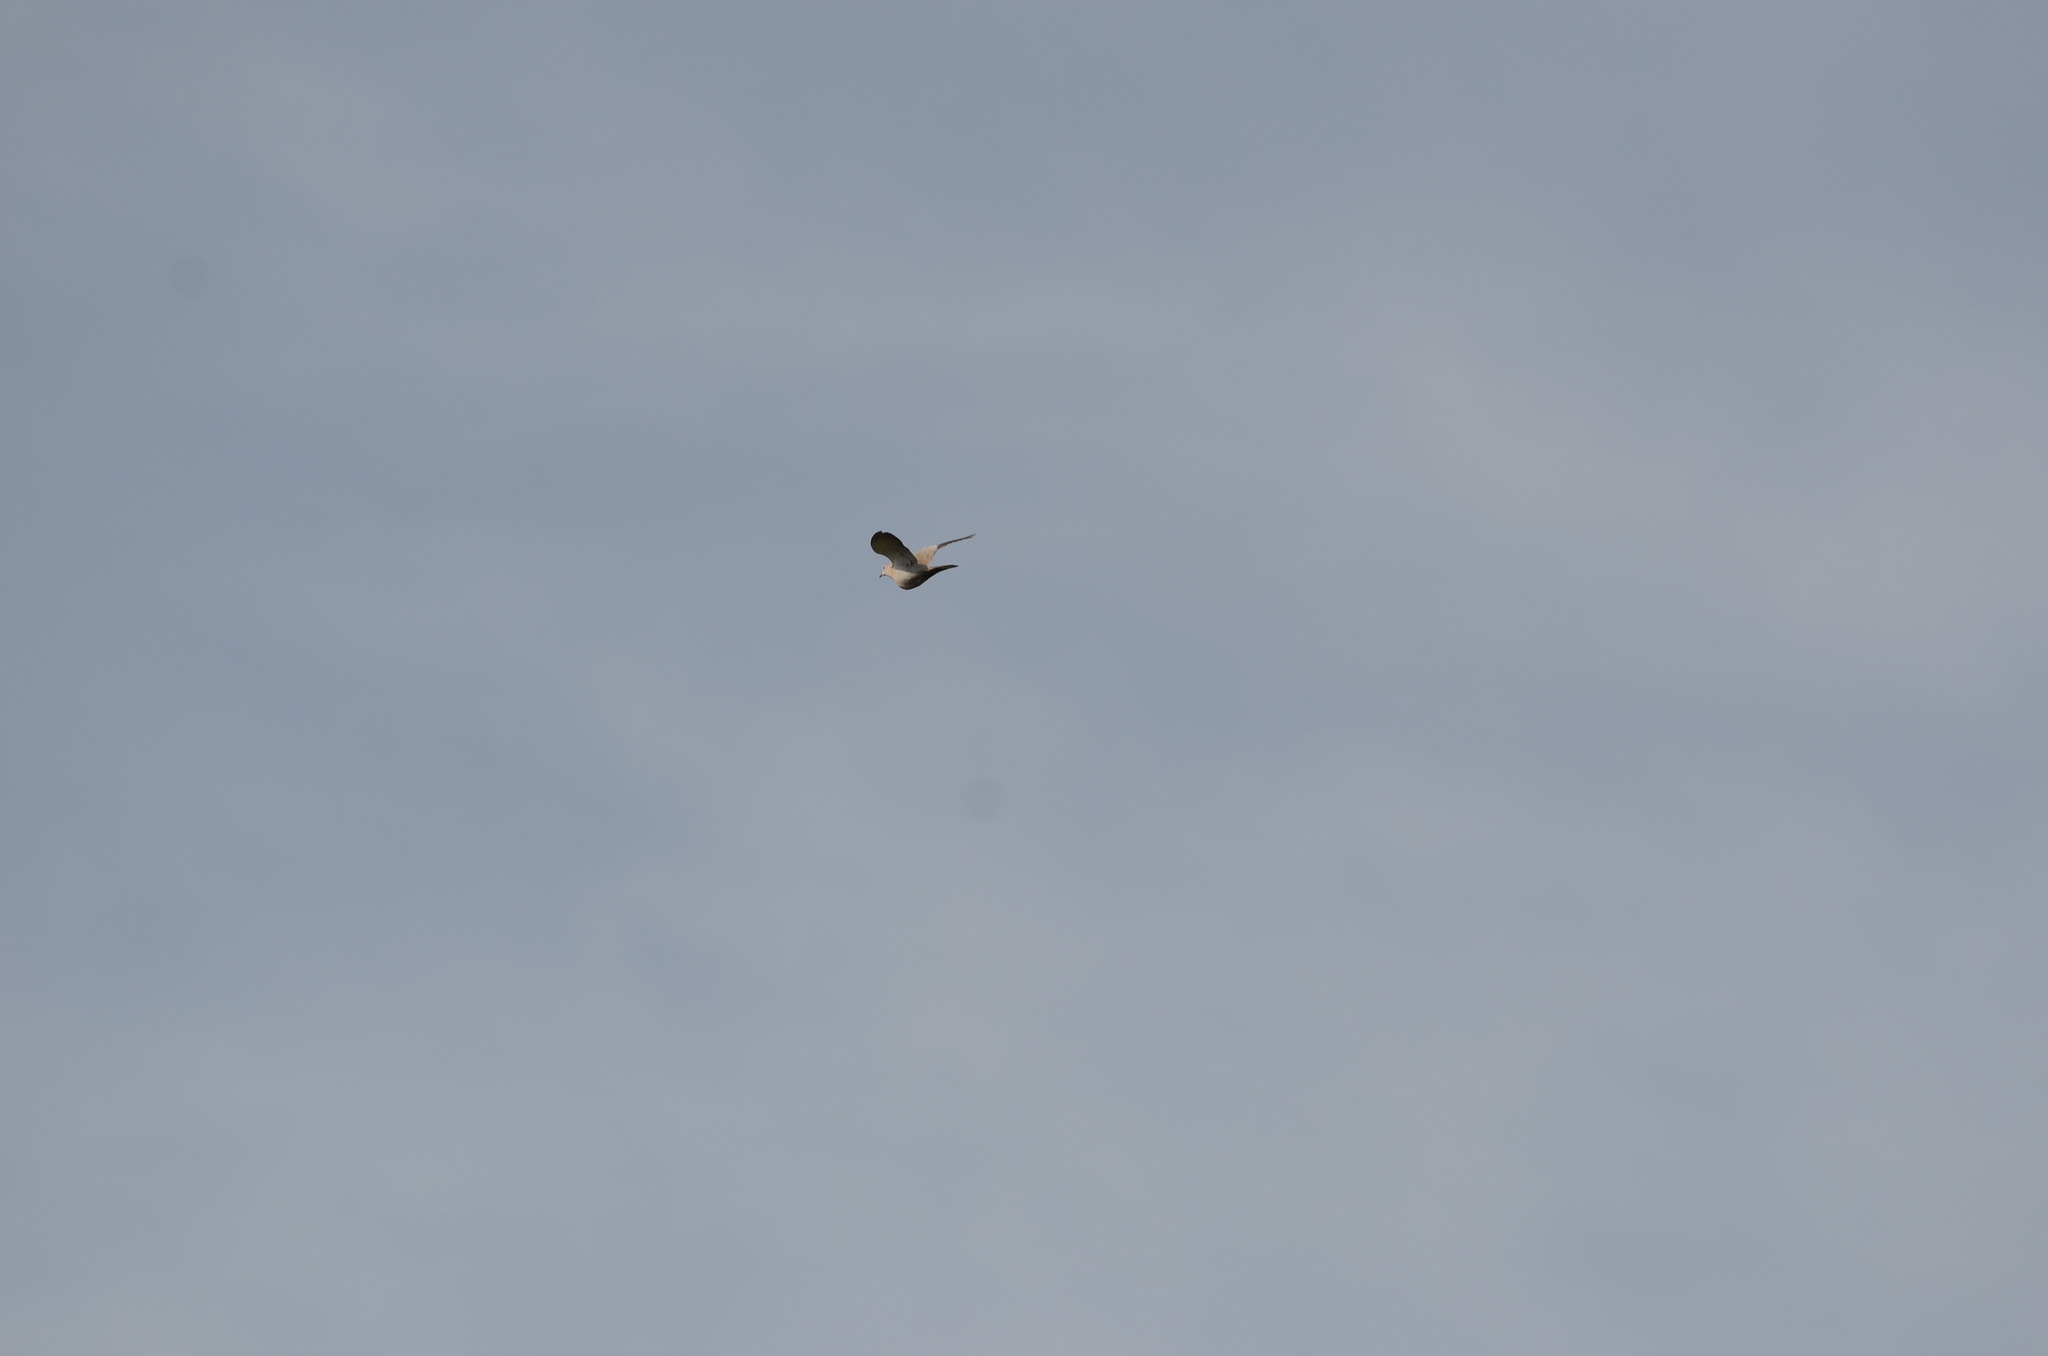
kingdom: Animalia
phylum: Chordata
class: Aves
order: Columbiformes
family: Columbidae
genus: Streptopelia
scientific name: Streptopelia decaocto
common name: Eurasian collared dove
